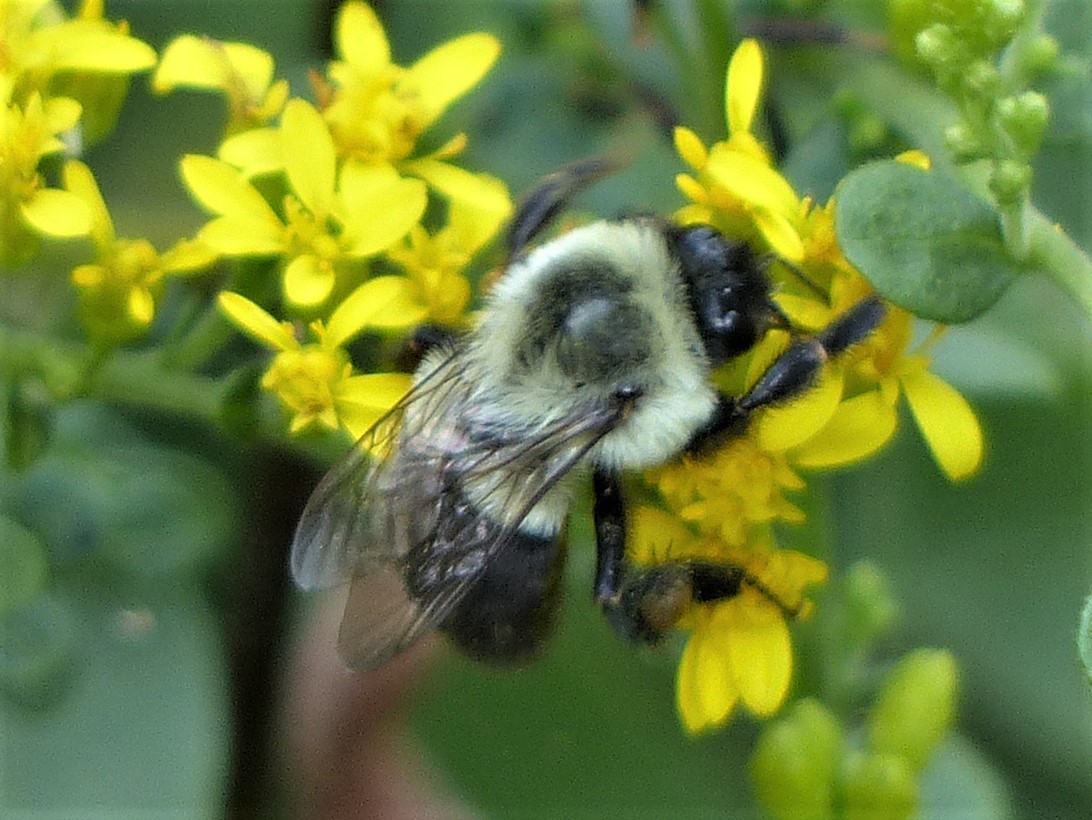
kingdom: Animalia
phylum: Arthropoda
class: Insecta
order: Hymenoptera
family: Apidae
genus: Bombus
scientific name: Bombus impatiens
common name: Common eastern bumble bee
